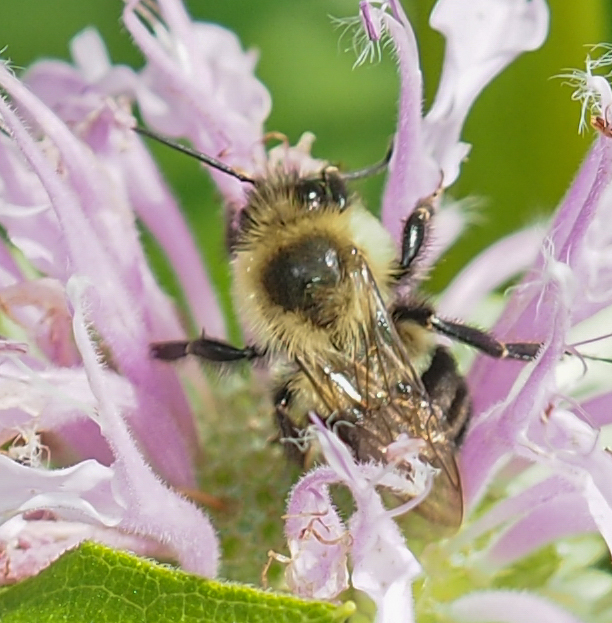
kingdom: Animalia
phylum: Arthropoda
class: Insecta
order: Hymenoptera
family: Apidae
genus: Bombus
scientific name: Bombus impatiens
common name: Common eastern bumble bee
